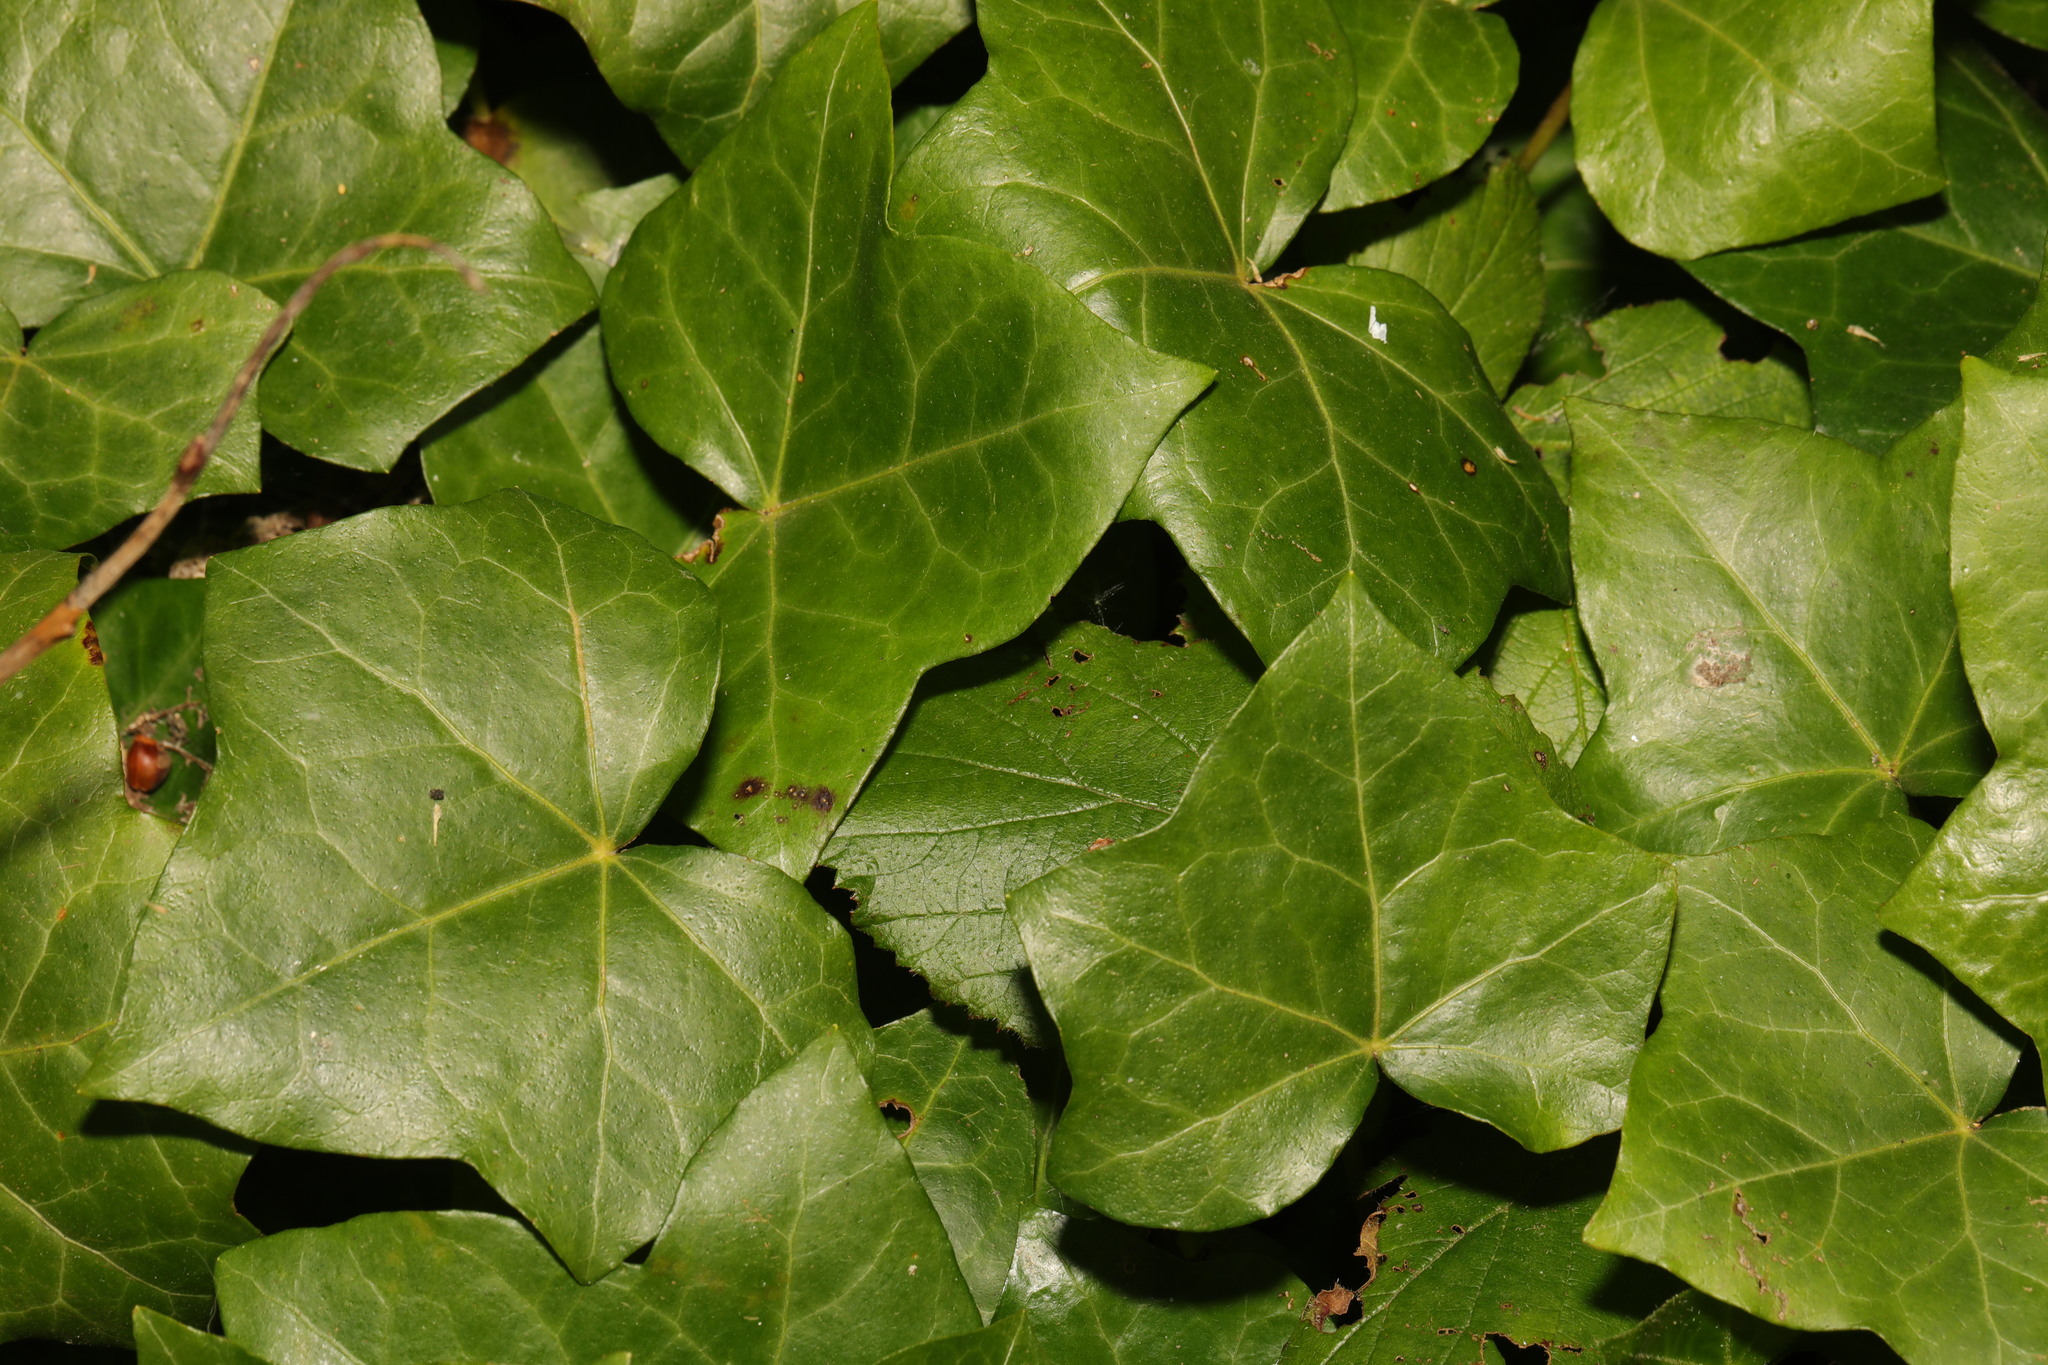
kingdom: Plantae
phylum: Tracheophyta
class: Magnoliopsida
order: Apiales
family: Araliaceae
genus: Hedera
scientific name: Hedera helix
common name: Ivy
